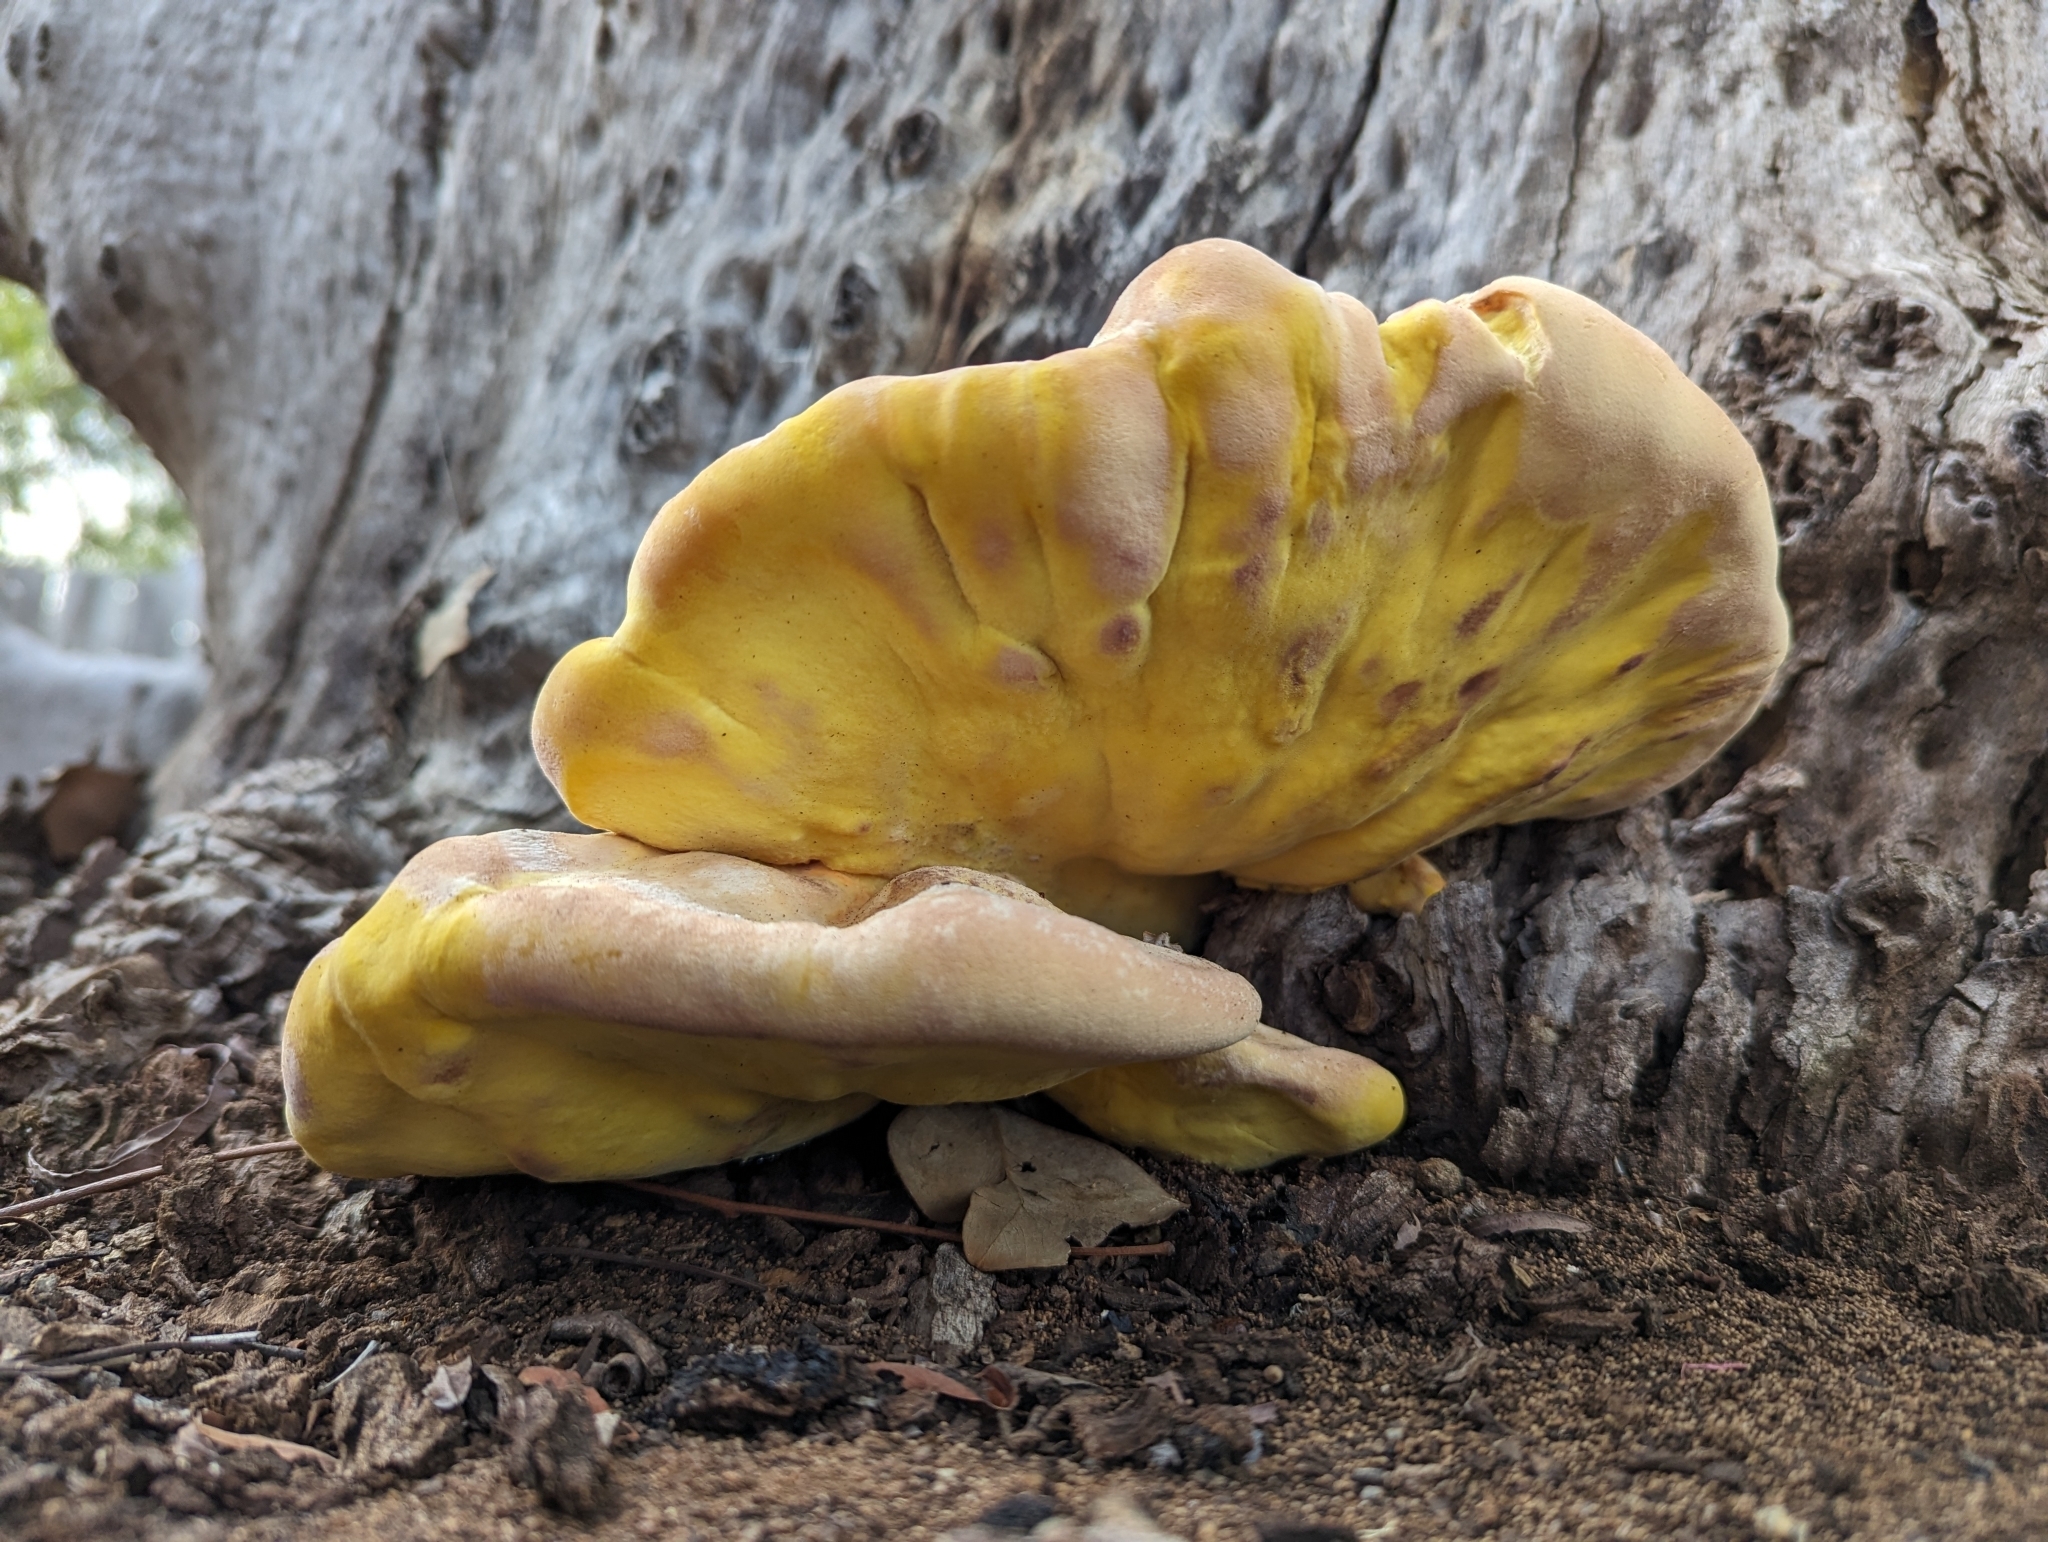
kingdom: Fungi
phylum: Basidiomycota
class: Agaricomycetes
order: Polyporales
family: Laetiporaceae
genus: Laetiporus
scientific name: Laetiporus gilbertsonii
